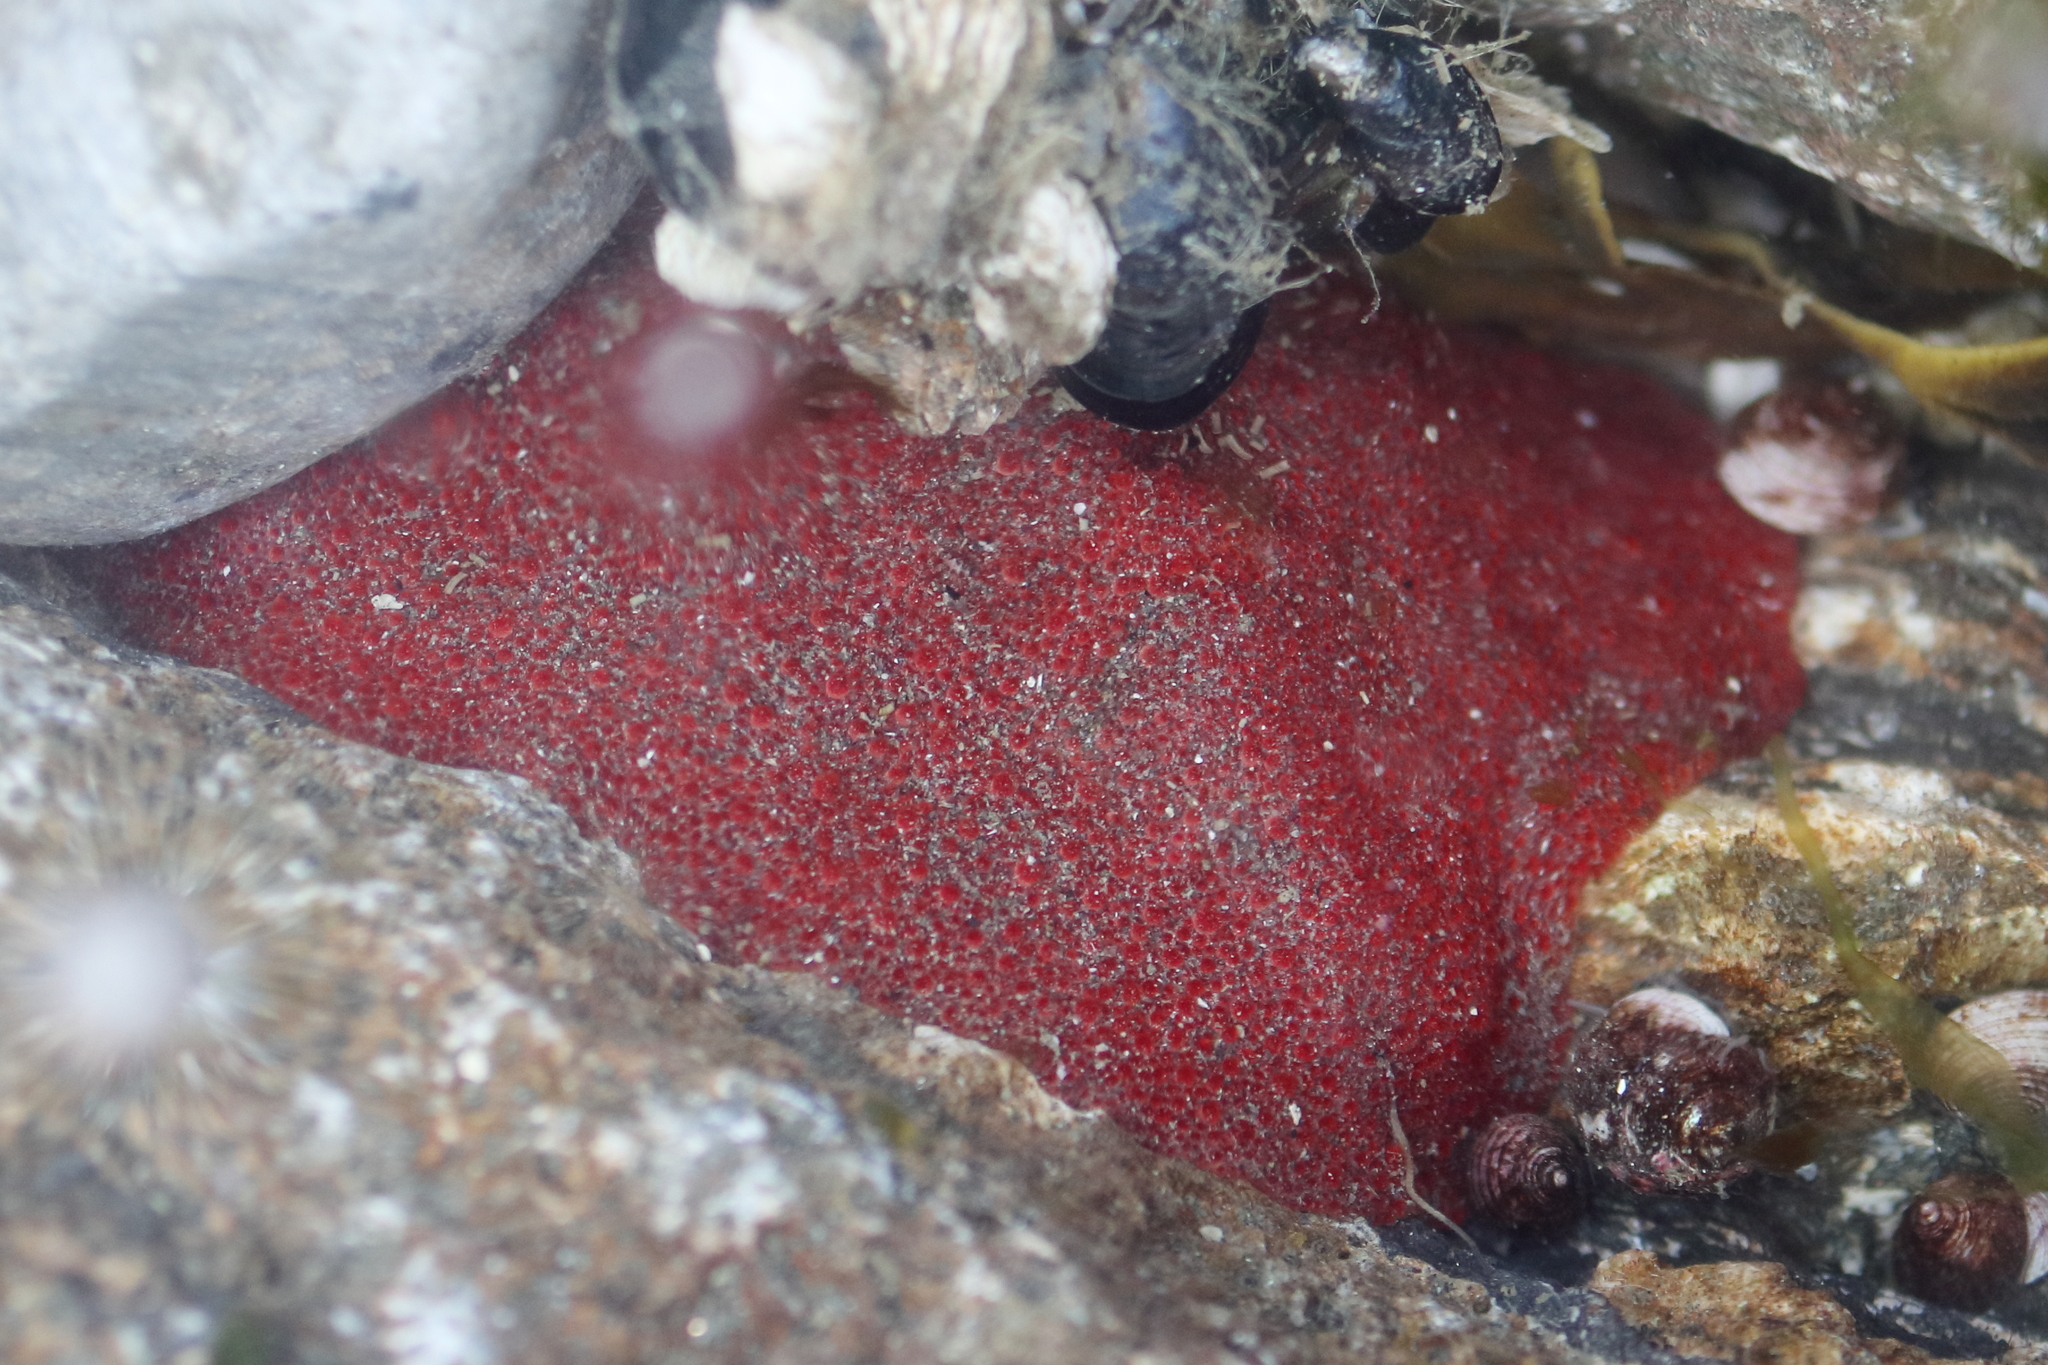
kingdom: Animalia
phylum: Mollusca
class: Polyplacophora
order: Chitonida
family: Acanthochitonidae
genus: Cryptochiton
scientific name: Cryptochiton stelleri
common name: Giant pacific chiton
